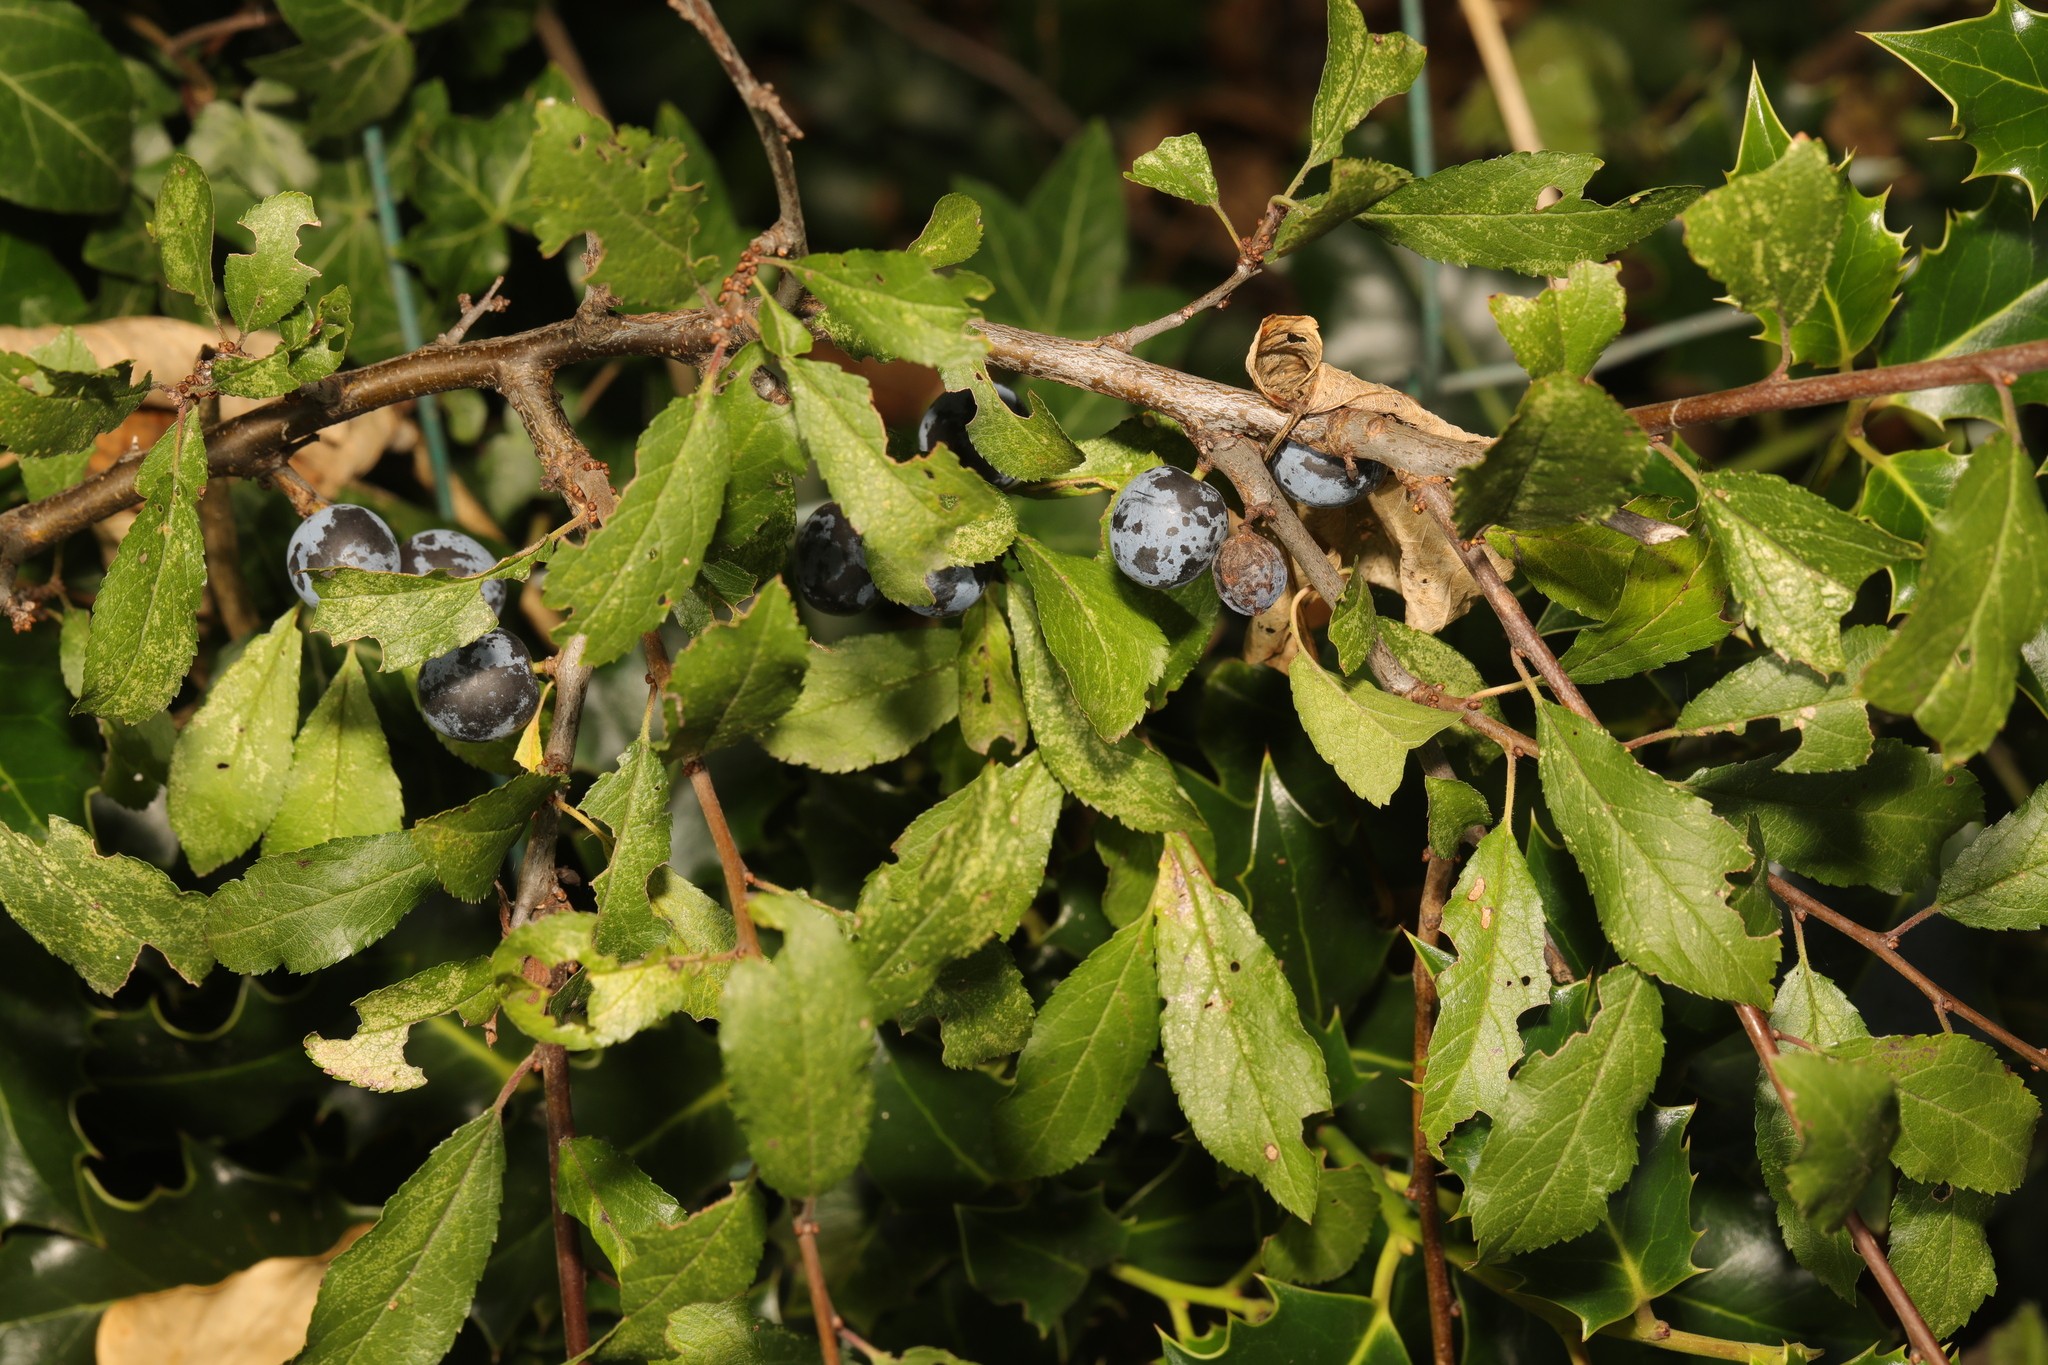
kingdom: Plantae
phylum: Tracheophyta
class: Magnoliopsida
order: Rosales
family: Rosaceae
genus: Prunus
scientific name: Prunus spinosa
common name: Blackthorn
